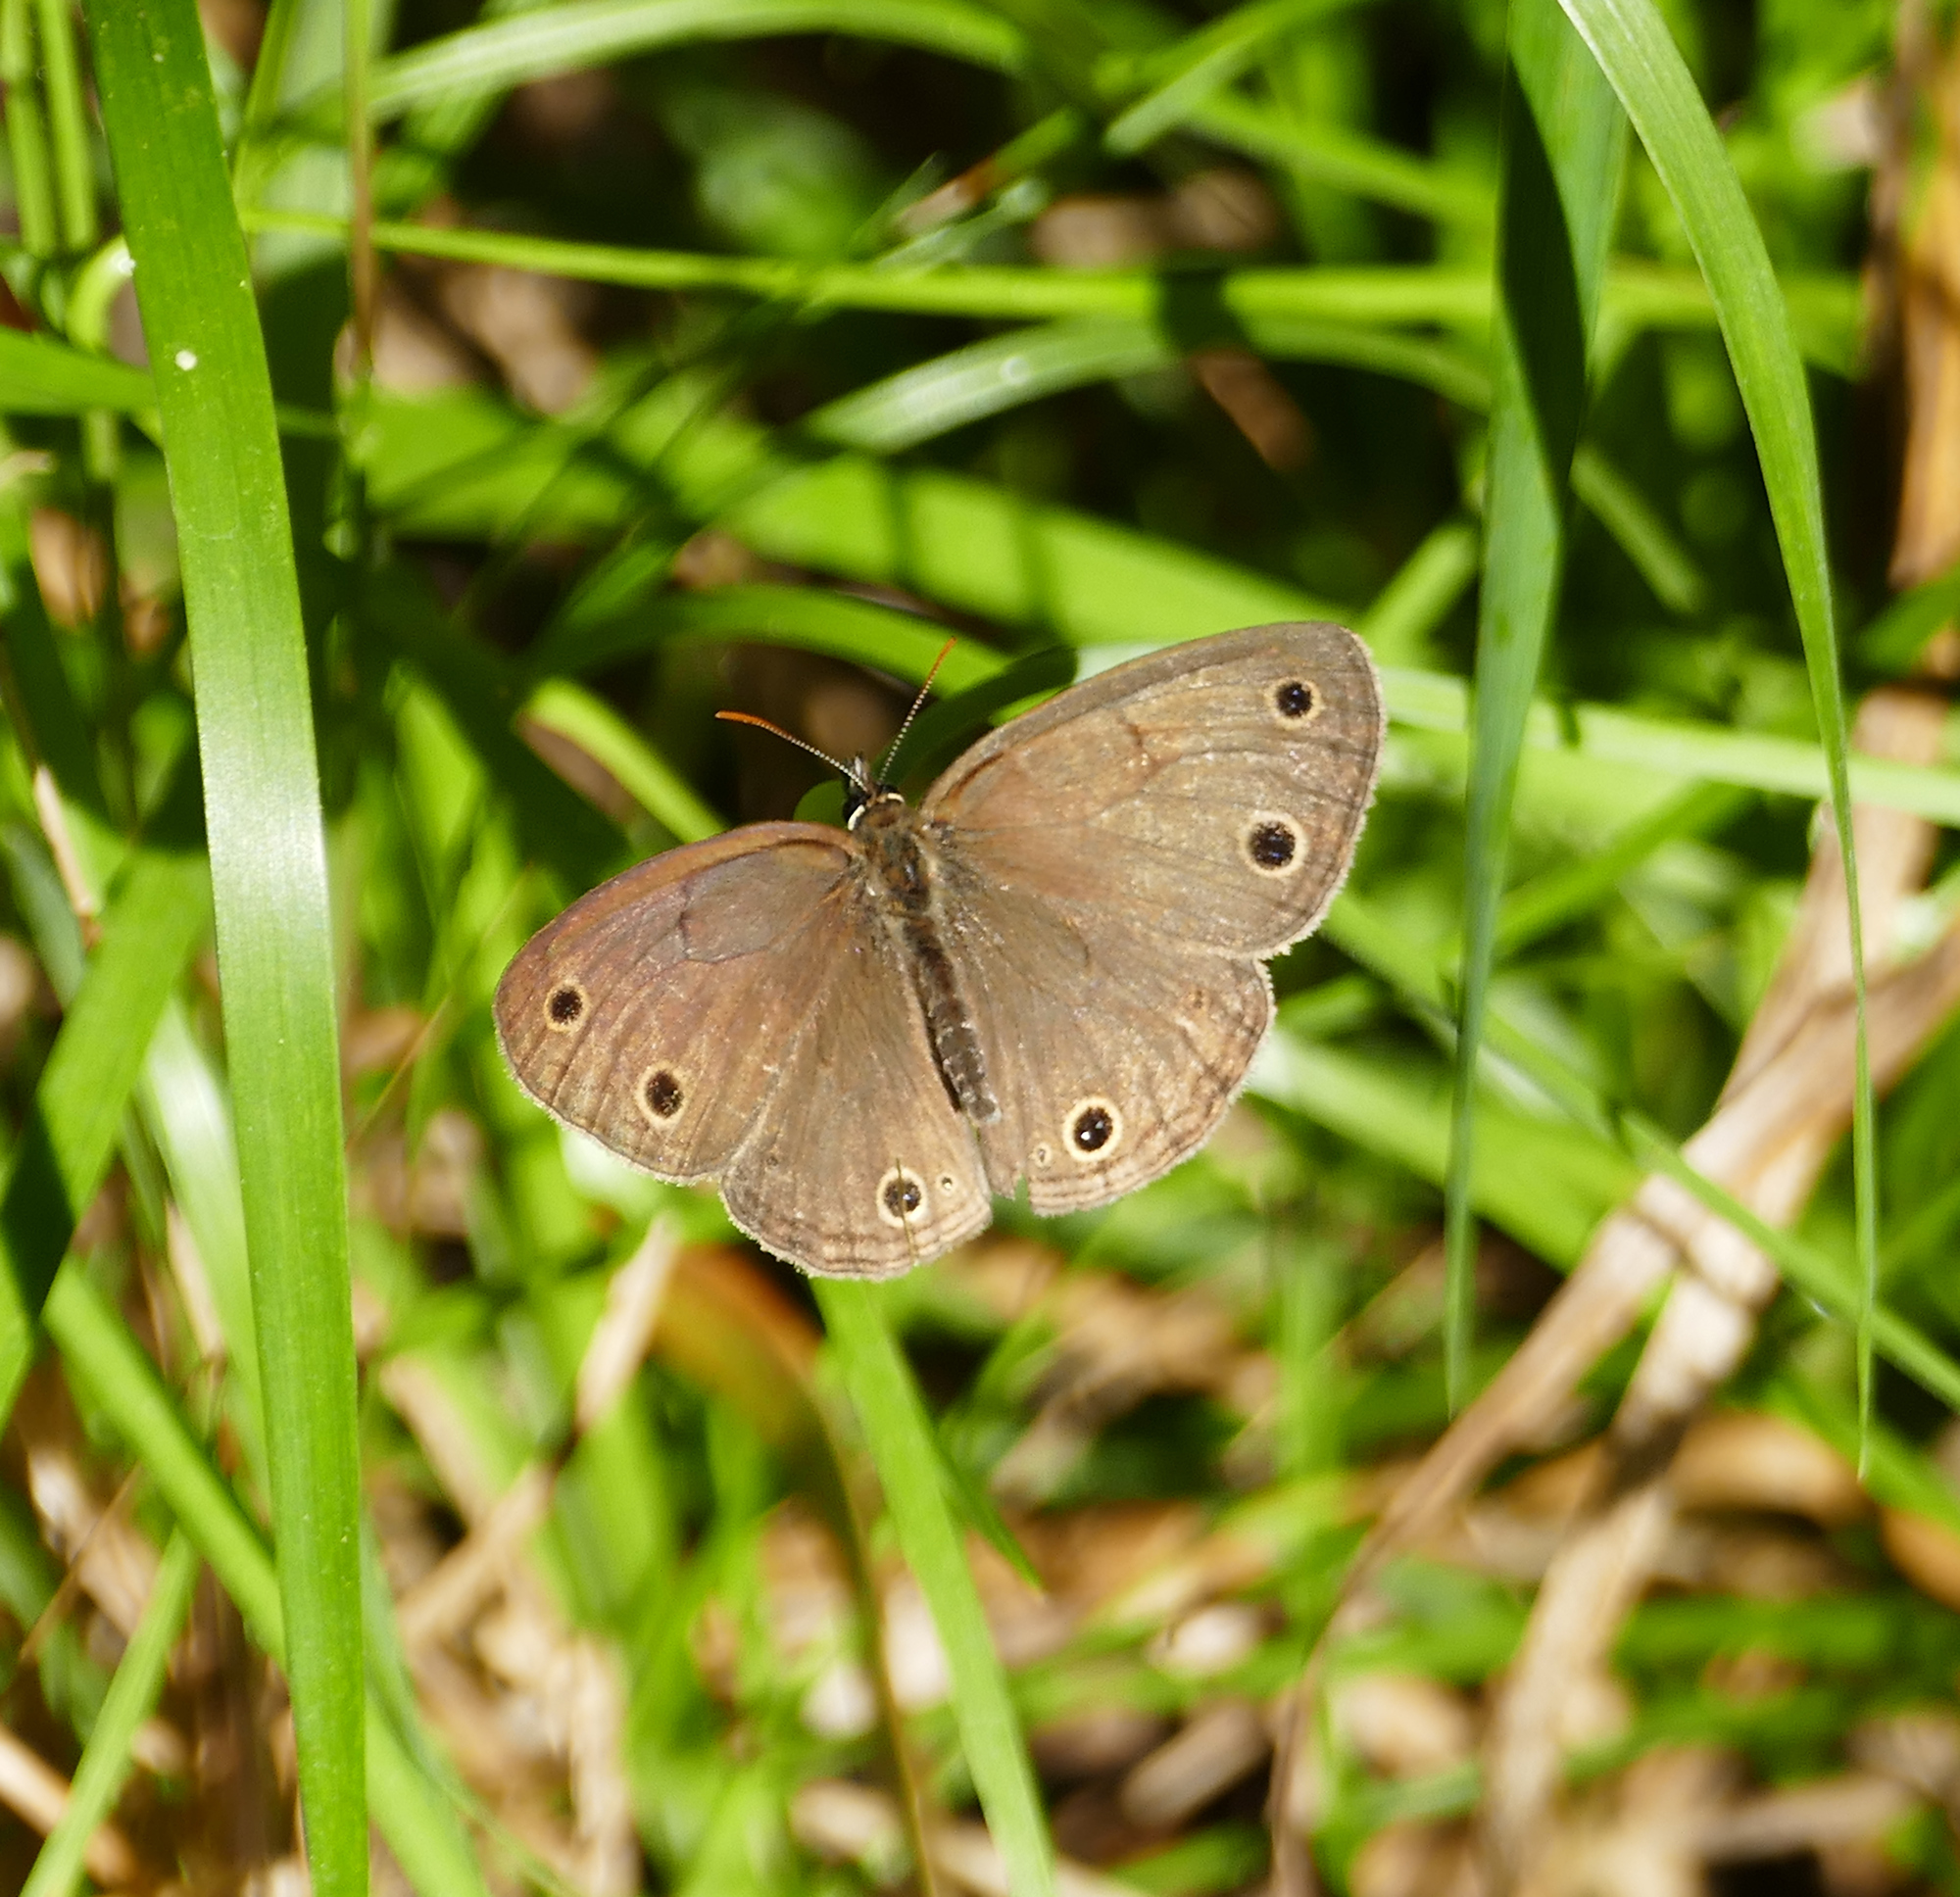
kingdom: Animalia
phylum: Arthropoda
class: Insecta
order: Lepidoptera
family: Nymphalidae
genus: Euptychia
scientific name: Euptychia cymela
